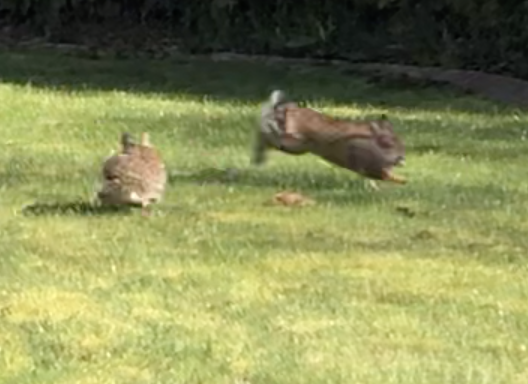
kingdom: Animalia
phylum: Chordata
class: Mammalia
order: Lagomorpha
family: Leporidae
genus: Sylvilagus
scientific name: Sylvilagus floridanus
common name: Eastern cottontail
